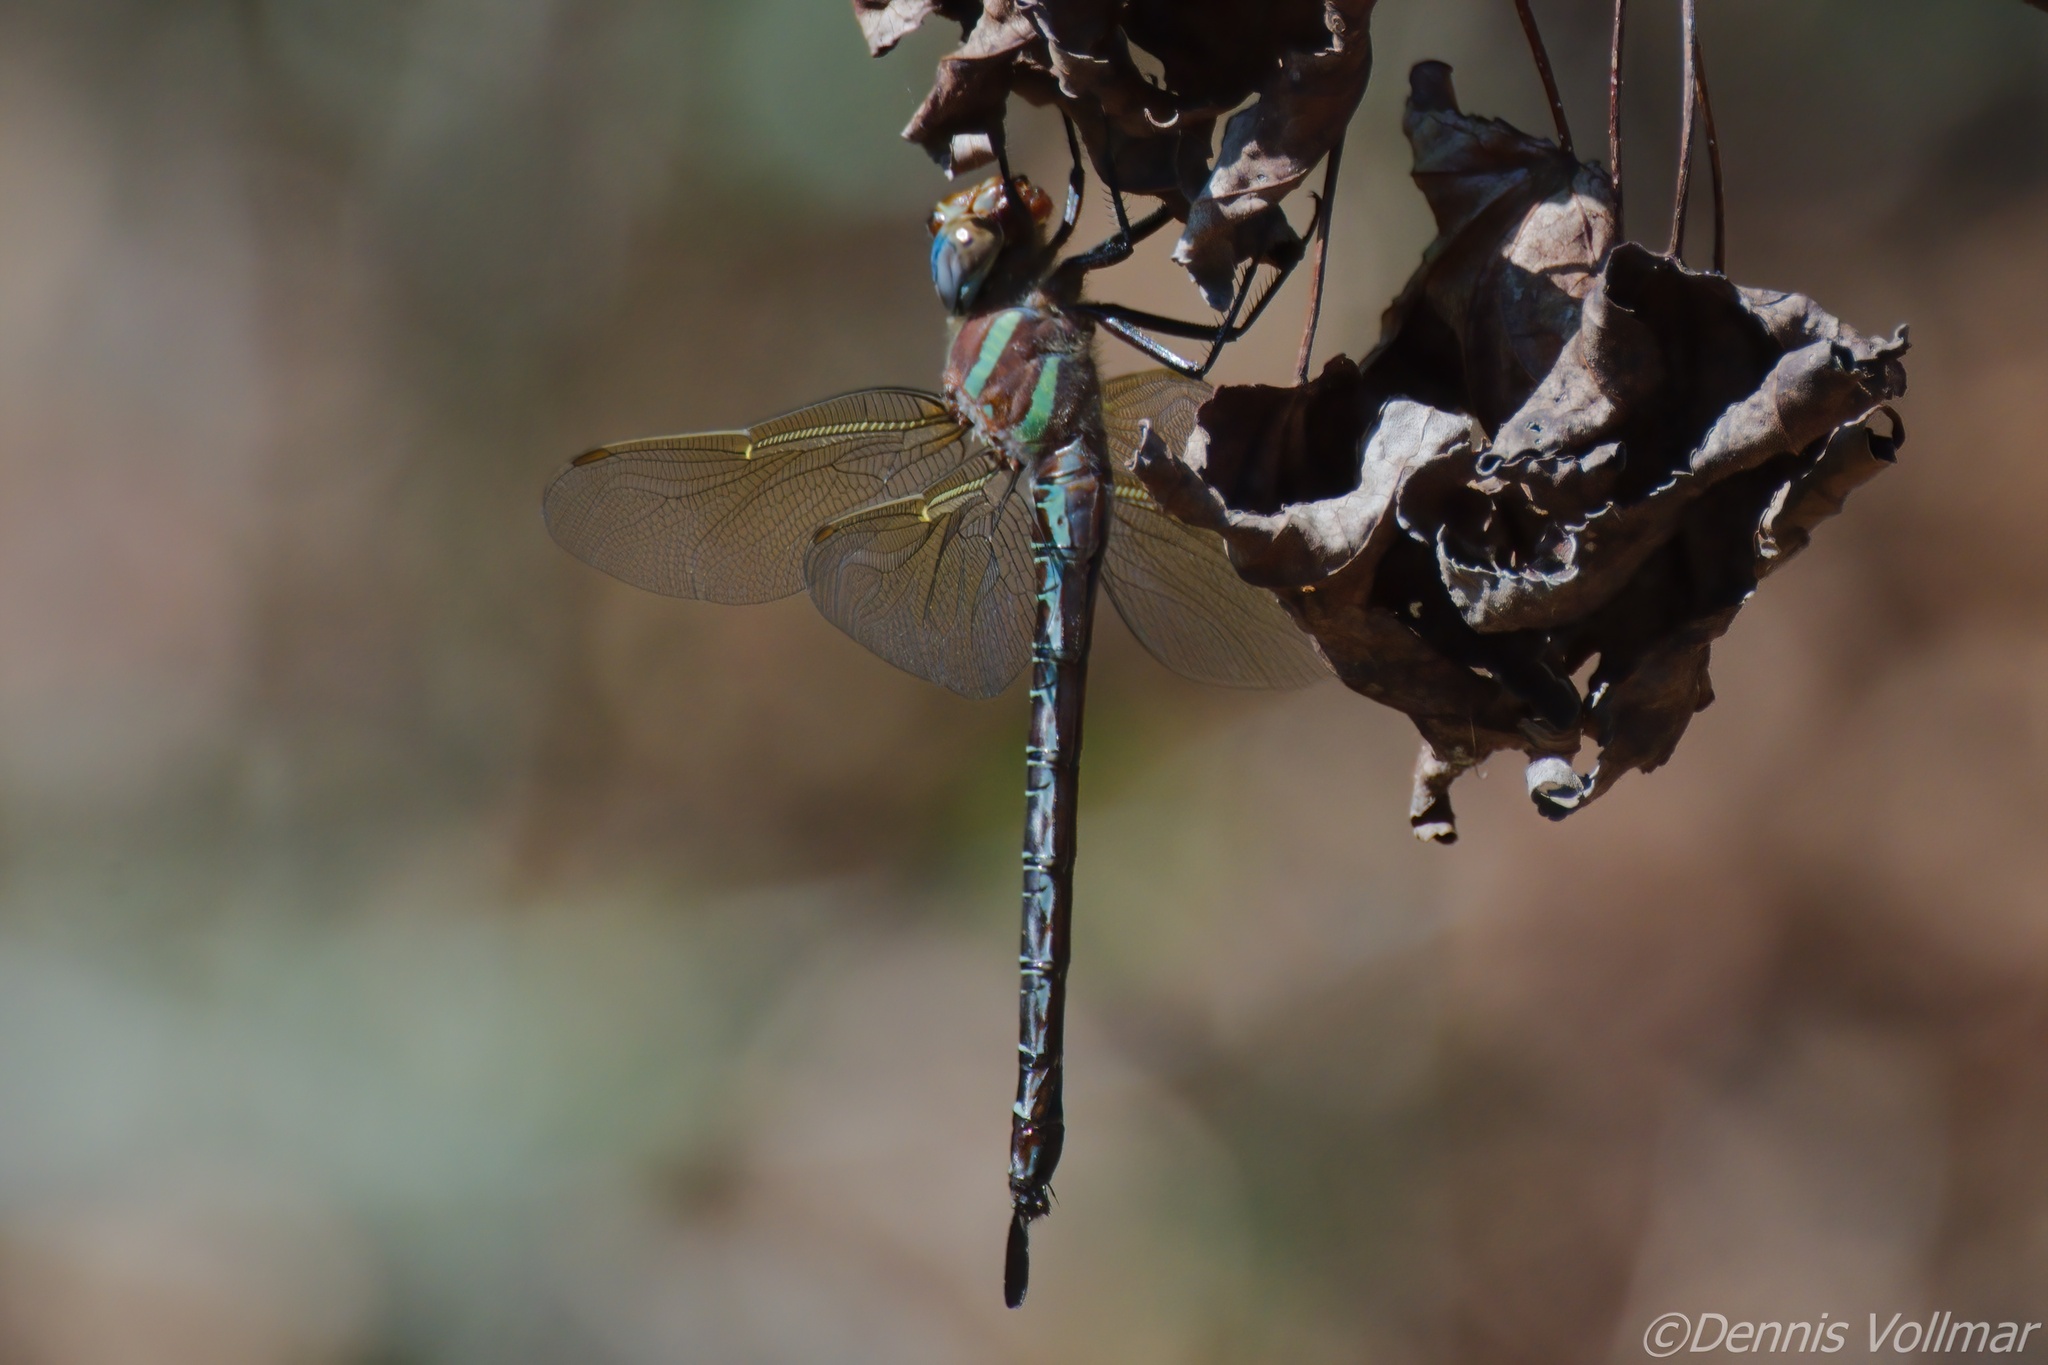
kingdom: Animalia
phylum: Arthropoda
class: Insecta
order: Odonata
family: Aeshnidae
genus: Epiaeschna
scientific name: Epiaeschna heros
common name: Swamp darner
